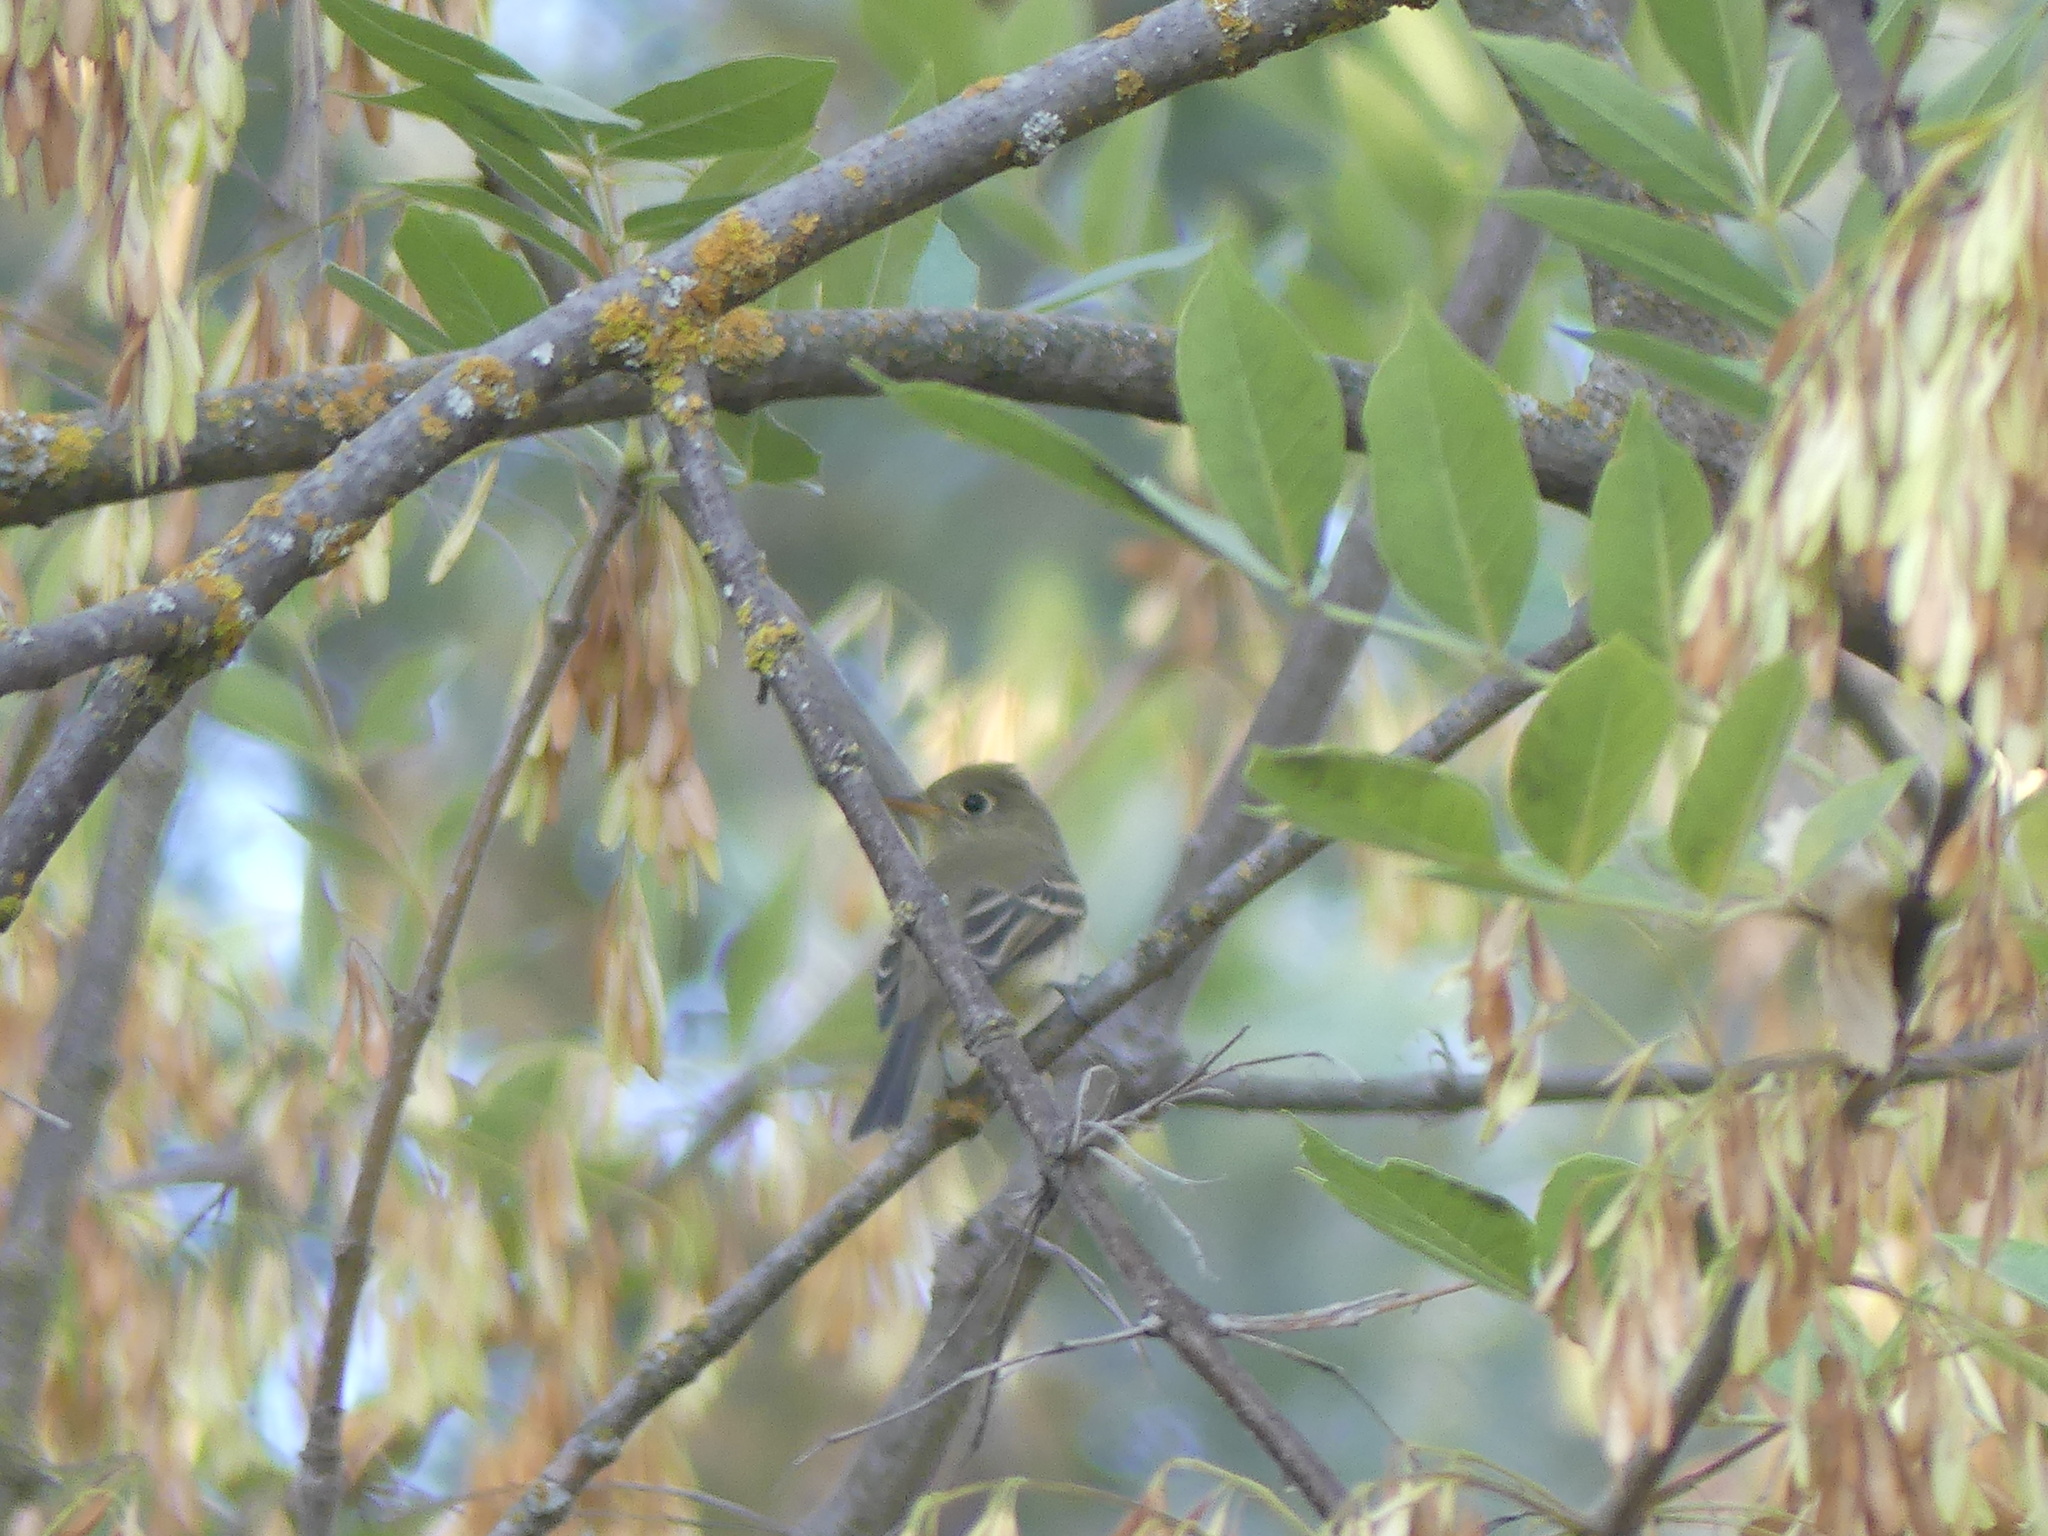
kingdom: Animalia
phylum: Chordata
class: Aves
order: Passeriformes
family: Tyrannidae
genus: Empidonax
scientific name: Empidonax difficilis
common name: Pacific-slope flycatcher
